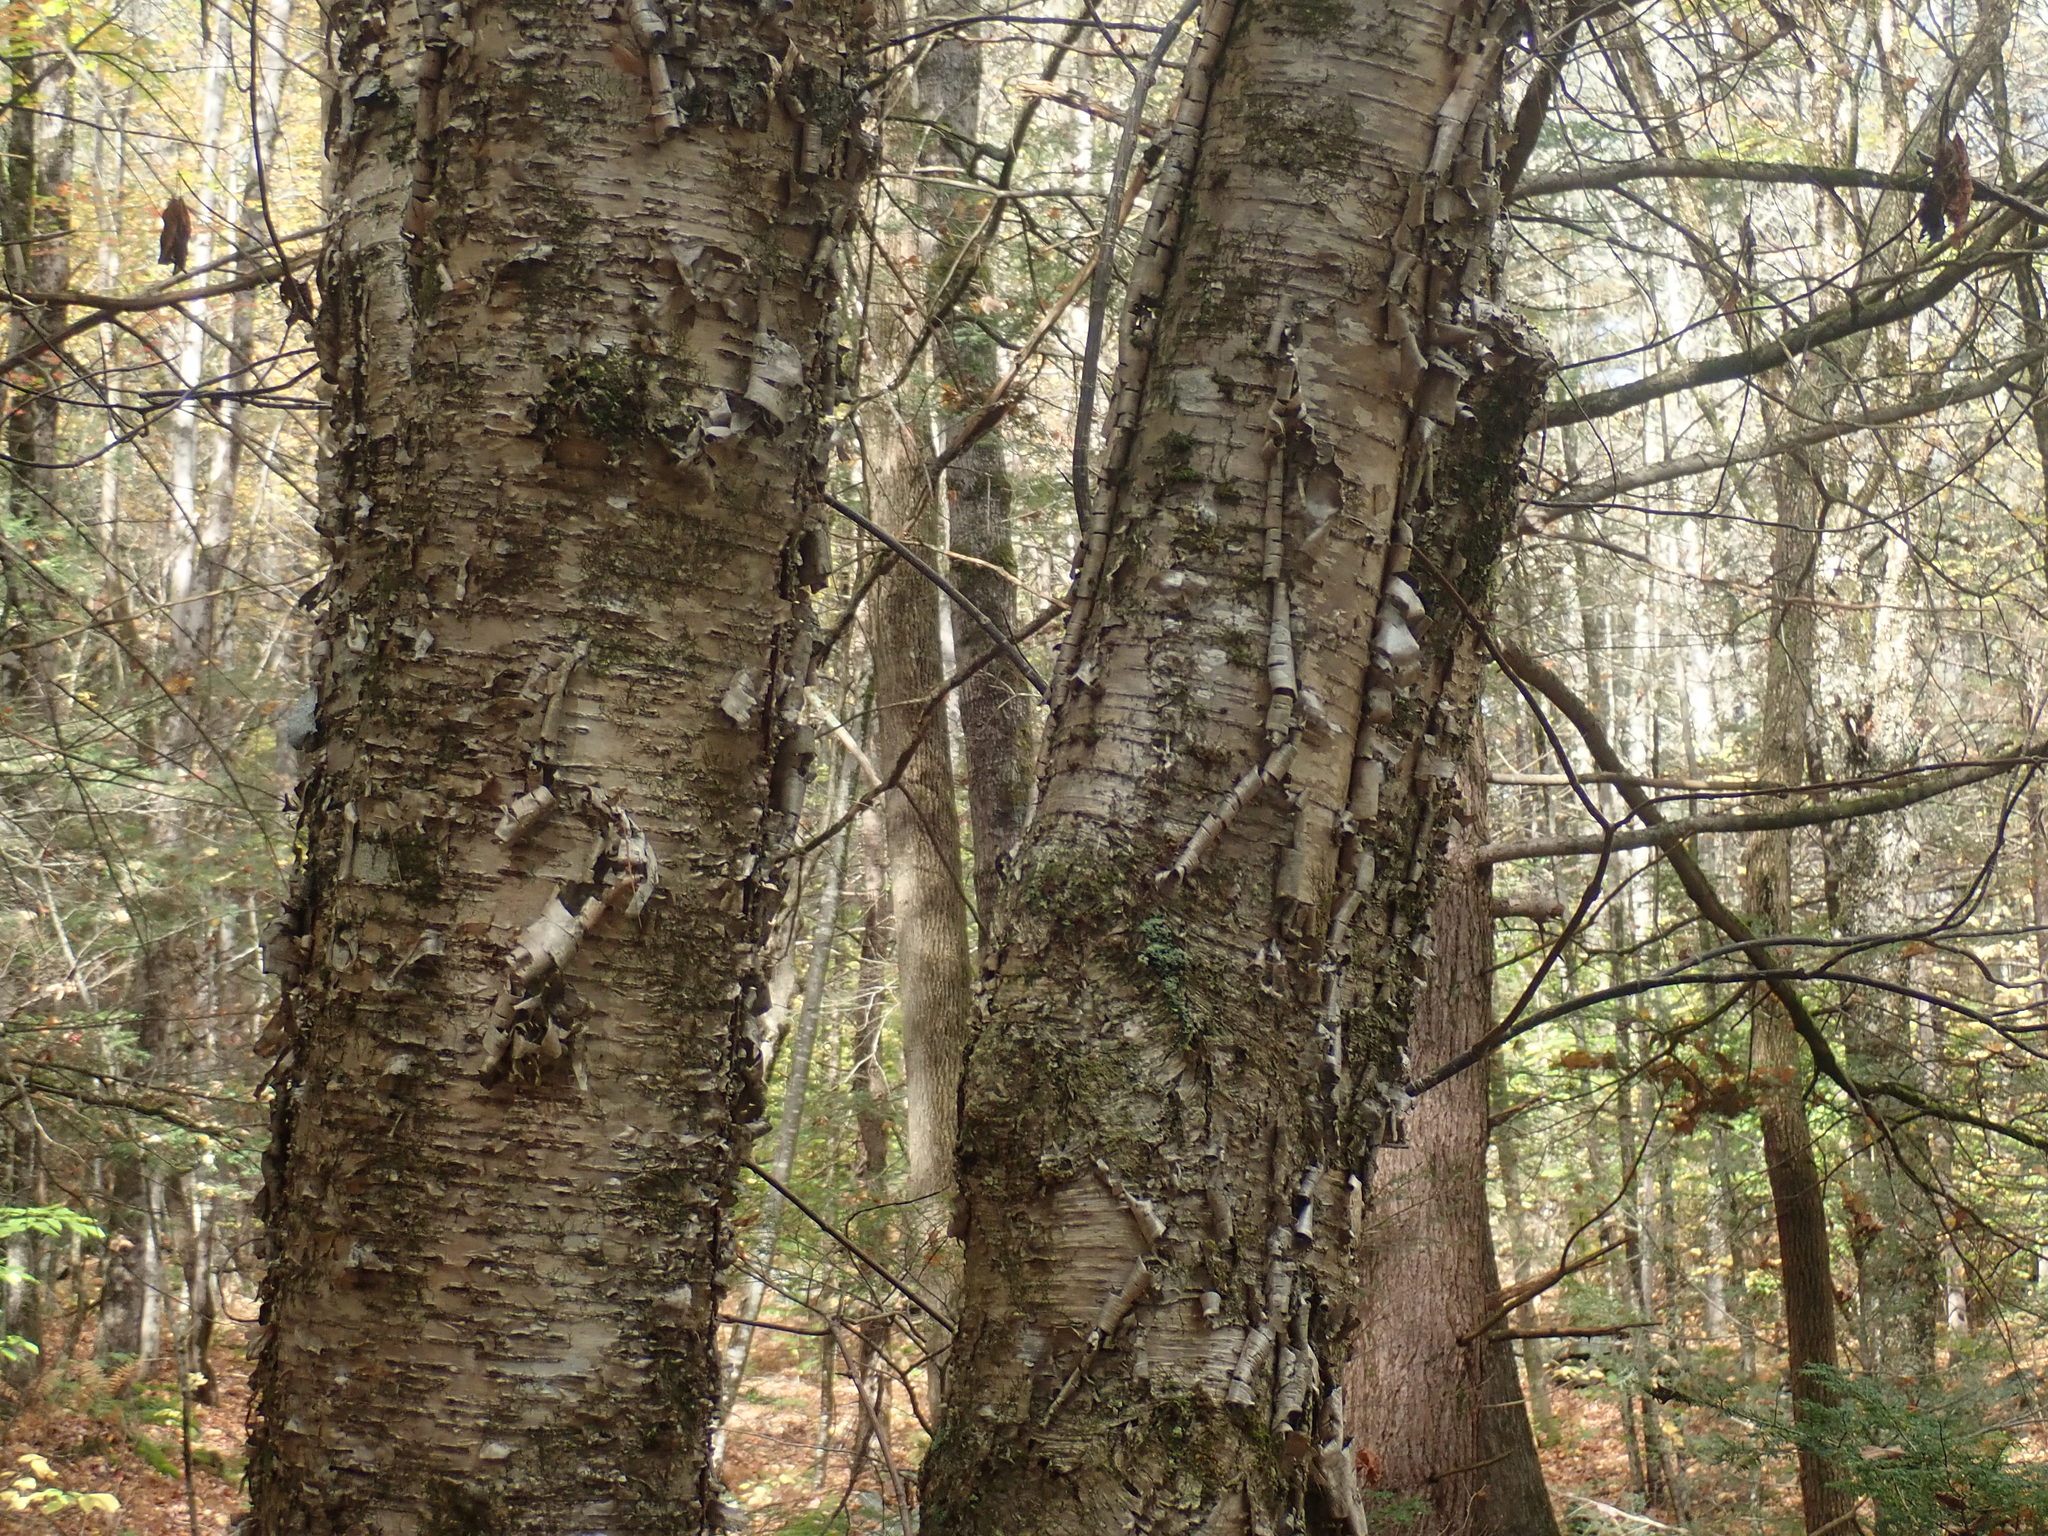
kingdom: Plantae
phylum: Tracheophyta
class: Magnoliopsida
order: Fagales
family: Betulaceae
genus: Betula
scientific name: Betula alleghaniensis
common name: Yellow birch
